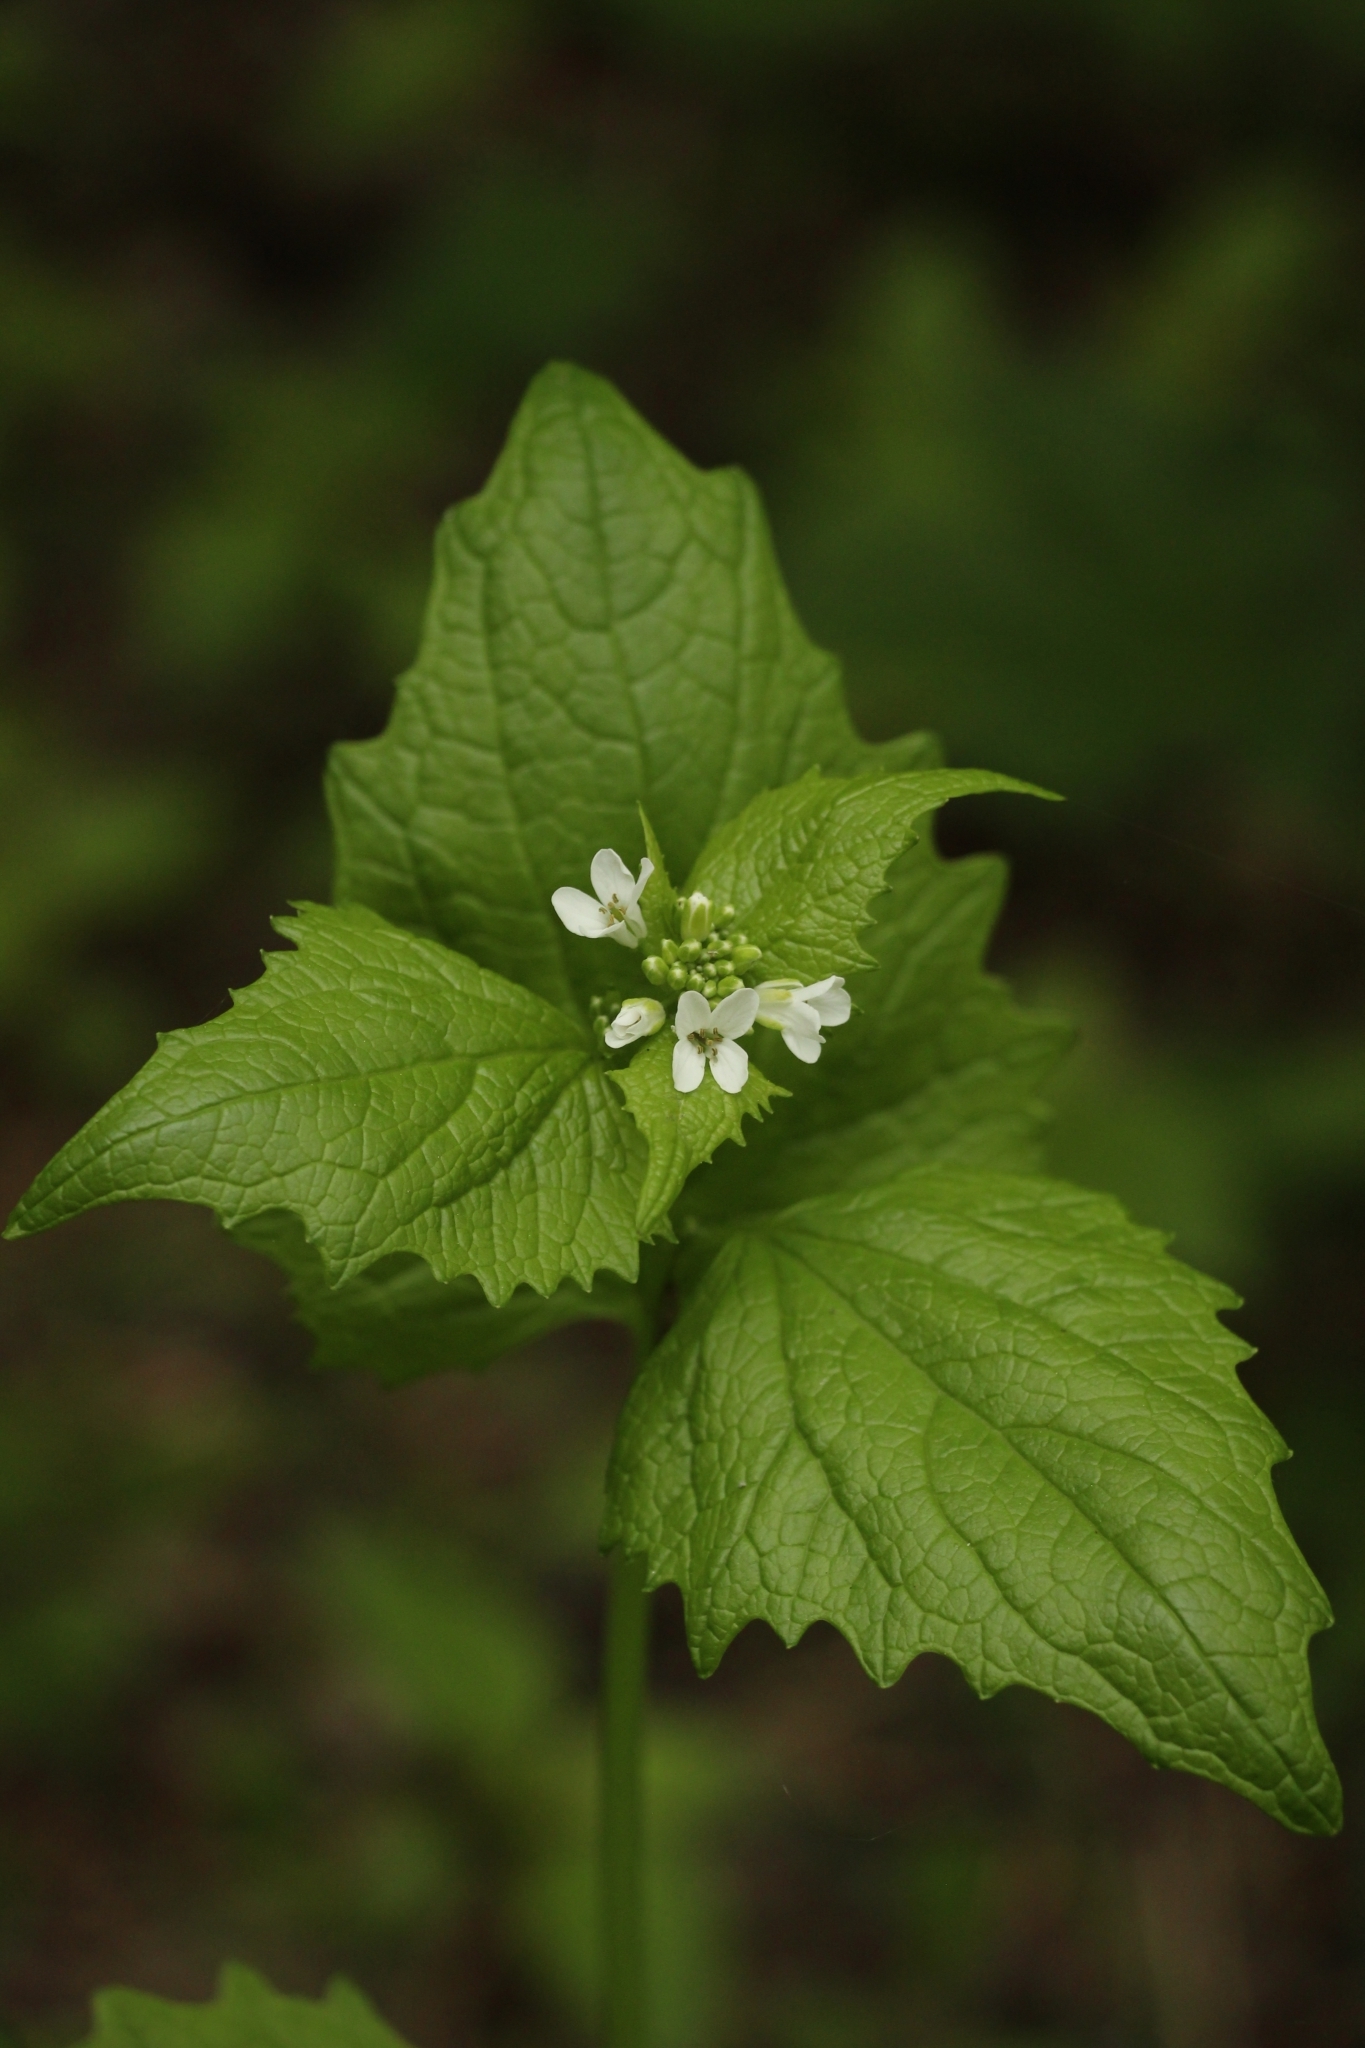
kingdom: Plantae
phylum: Tracheophyta
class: Magnoliopsida
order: Brassicales
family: Brassicaceae
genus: Alliaria
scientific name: Alliaria petiolata
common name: Garlic mustard
